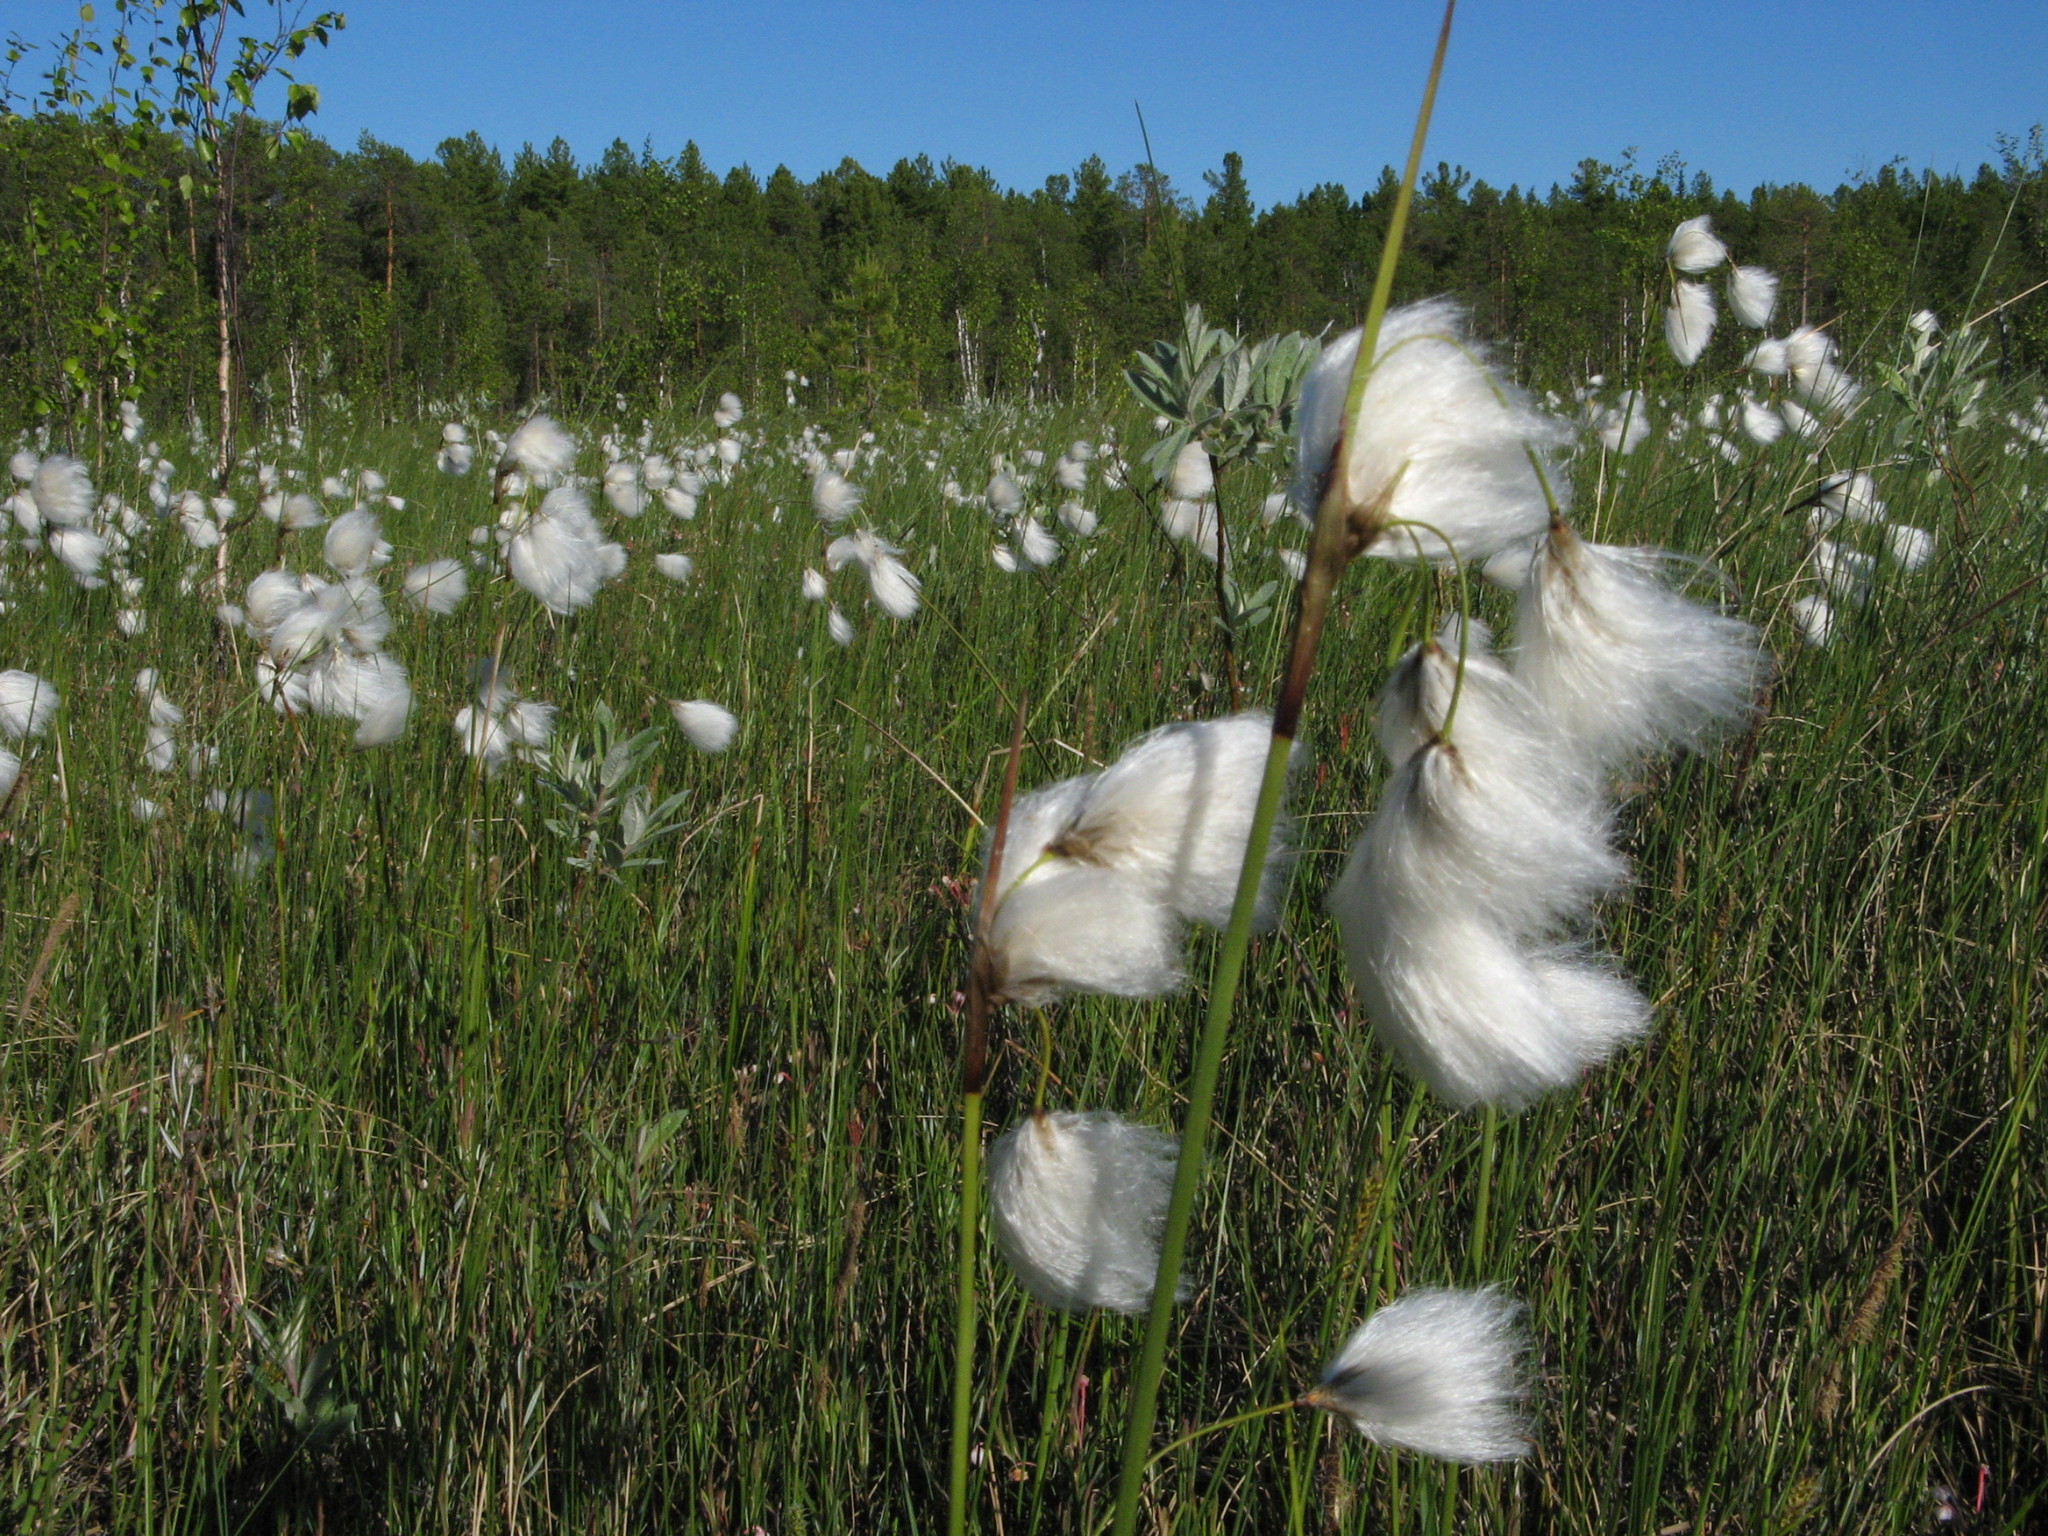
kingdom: Plantae
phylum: Tracheophyta
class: Liliopsida
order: Poales
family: Cyperaceae
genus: Eriophorum
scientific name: Eriophorum angustifolium
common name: Common cottongrass
